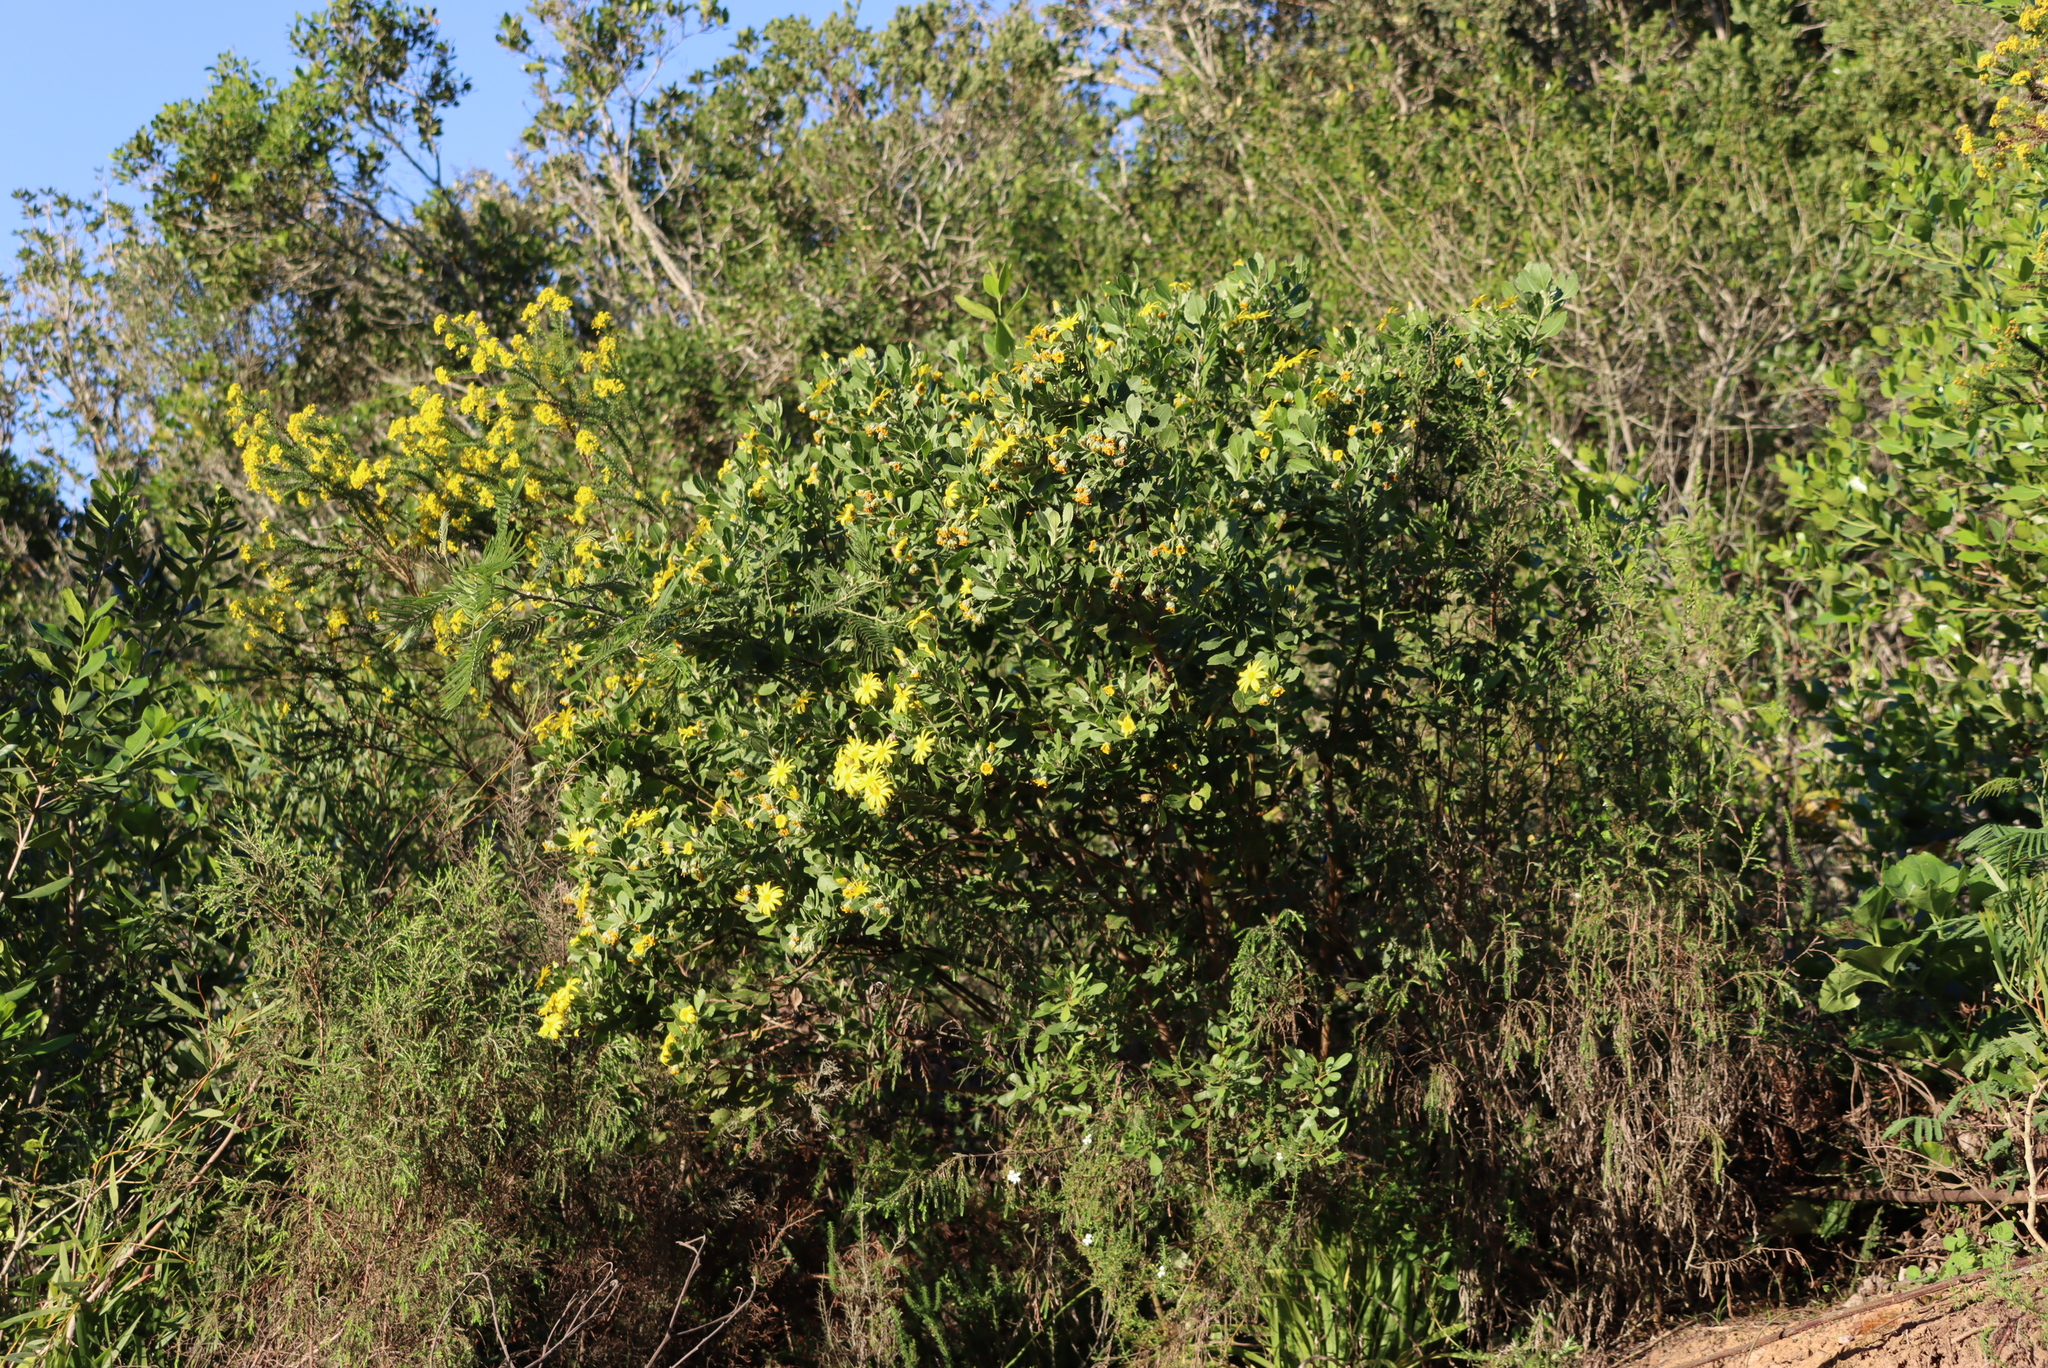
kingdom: Plantae
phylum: Tracheophyta
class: Magnoliopsida
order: Asterales
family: Asteraceae
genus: Osteospermum
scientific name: Osteospermum moniliferum
